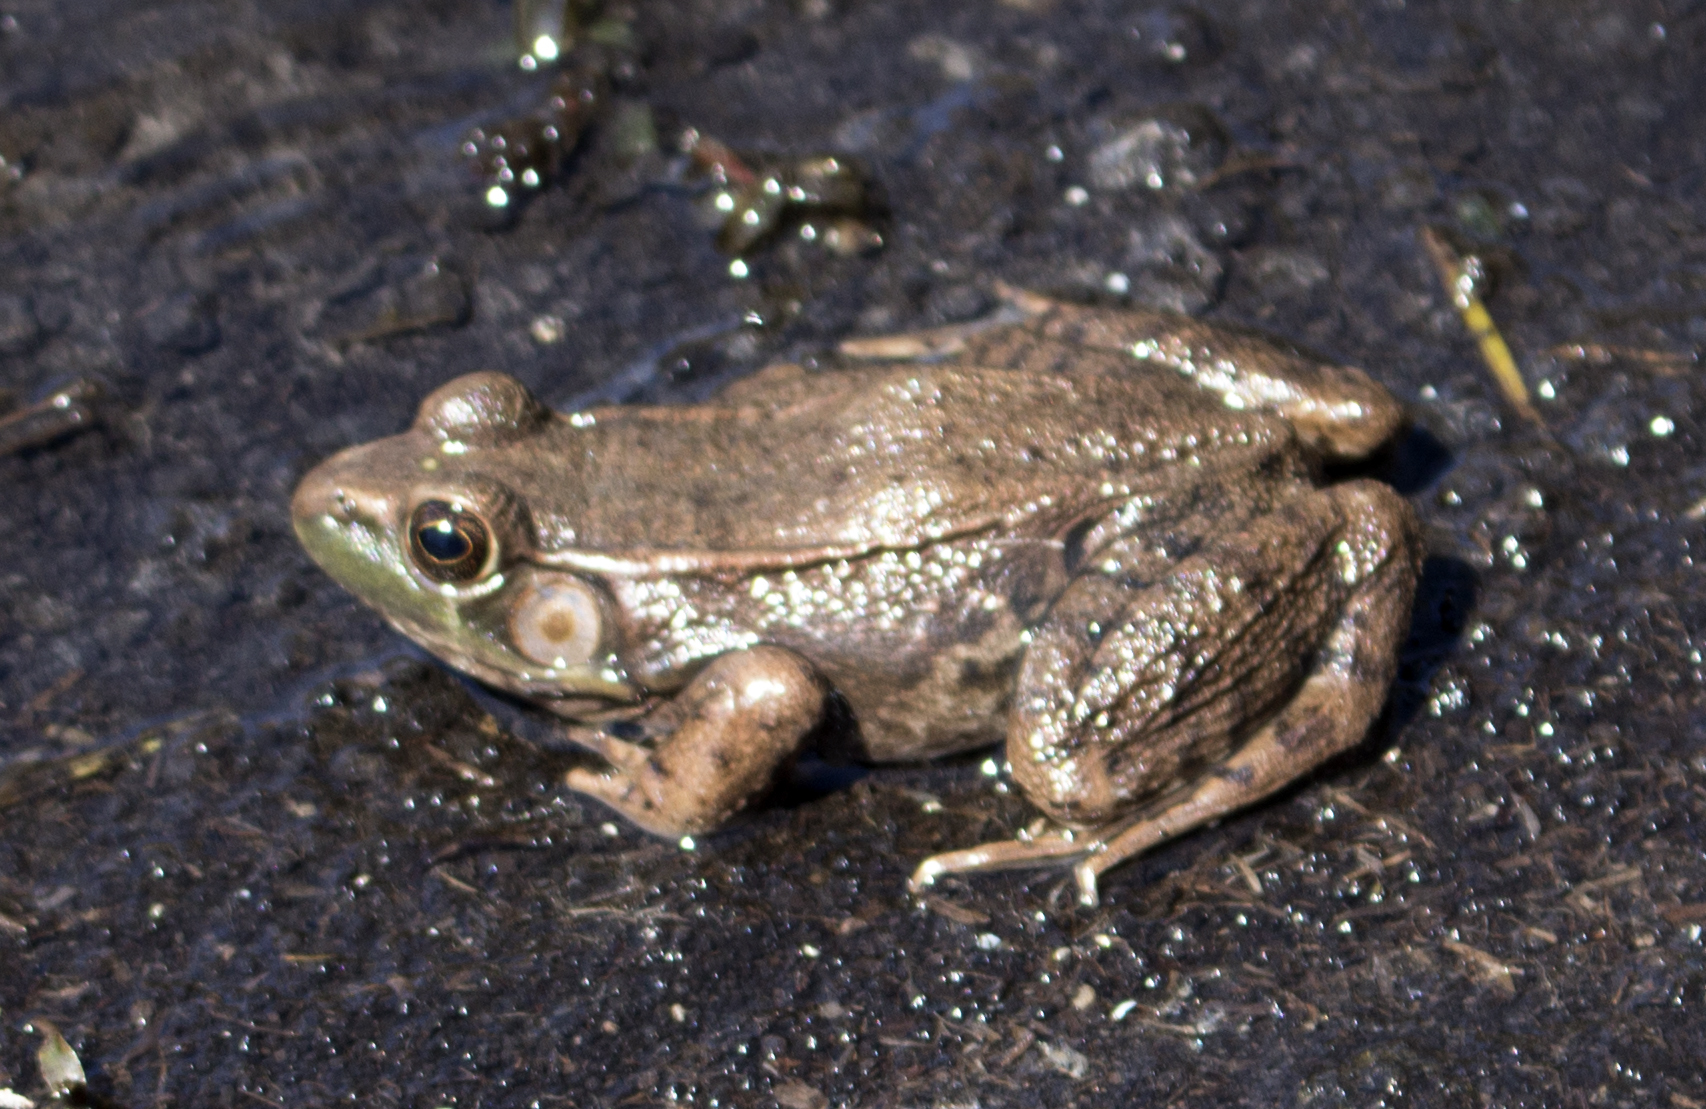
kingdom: Animalia
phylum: Chordata
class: Amphibia
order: Anura
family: Ranidae
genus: Lithobates
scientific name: Lithobates clamitans
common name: Green frog
